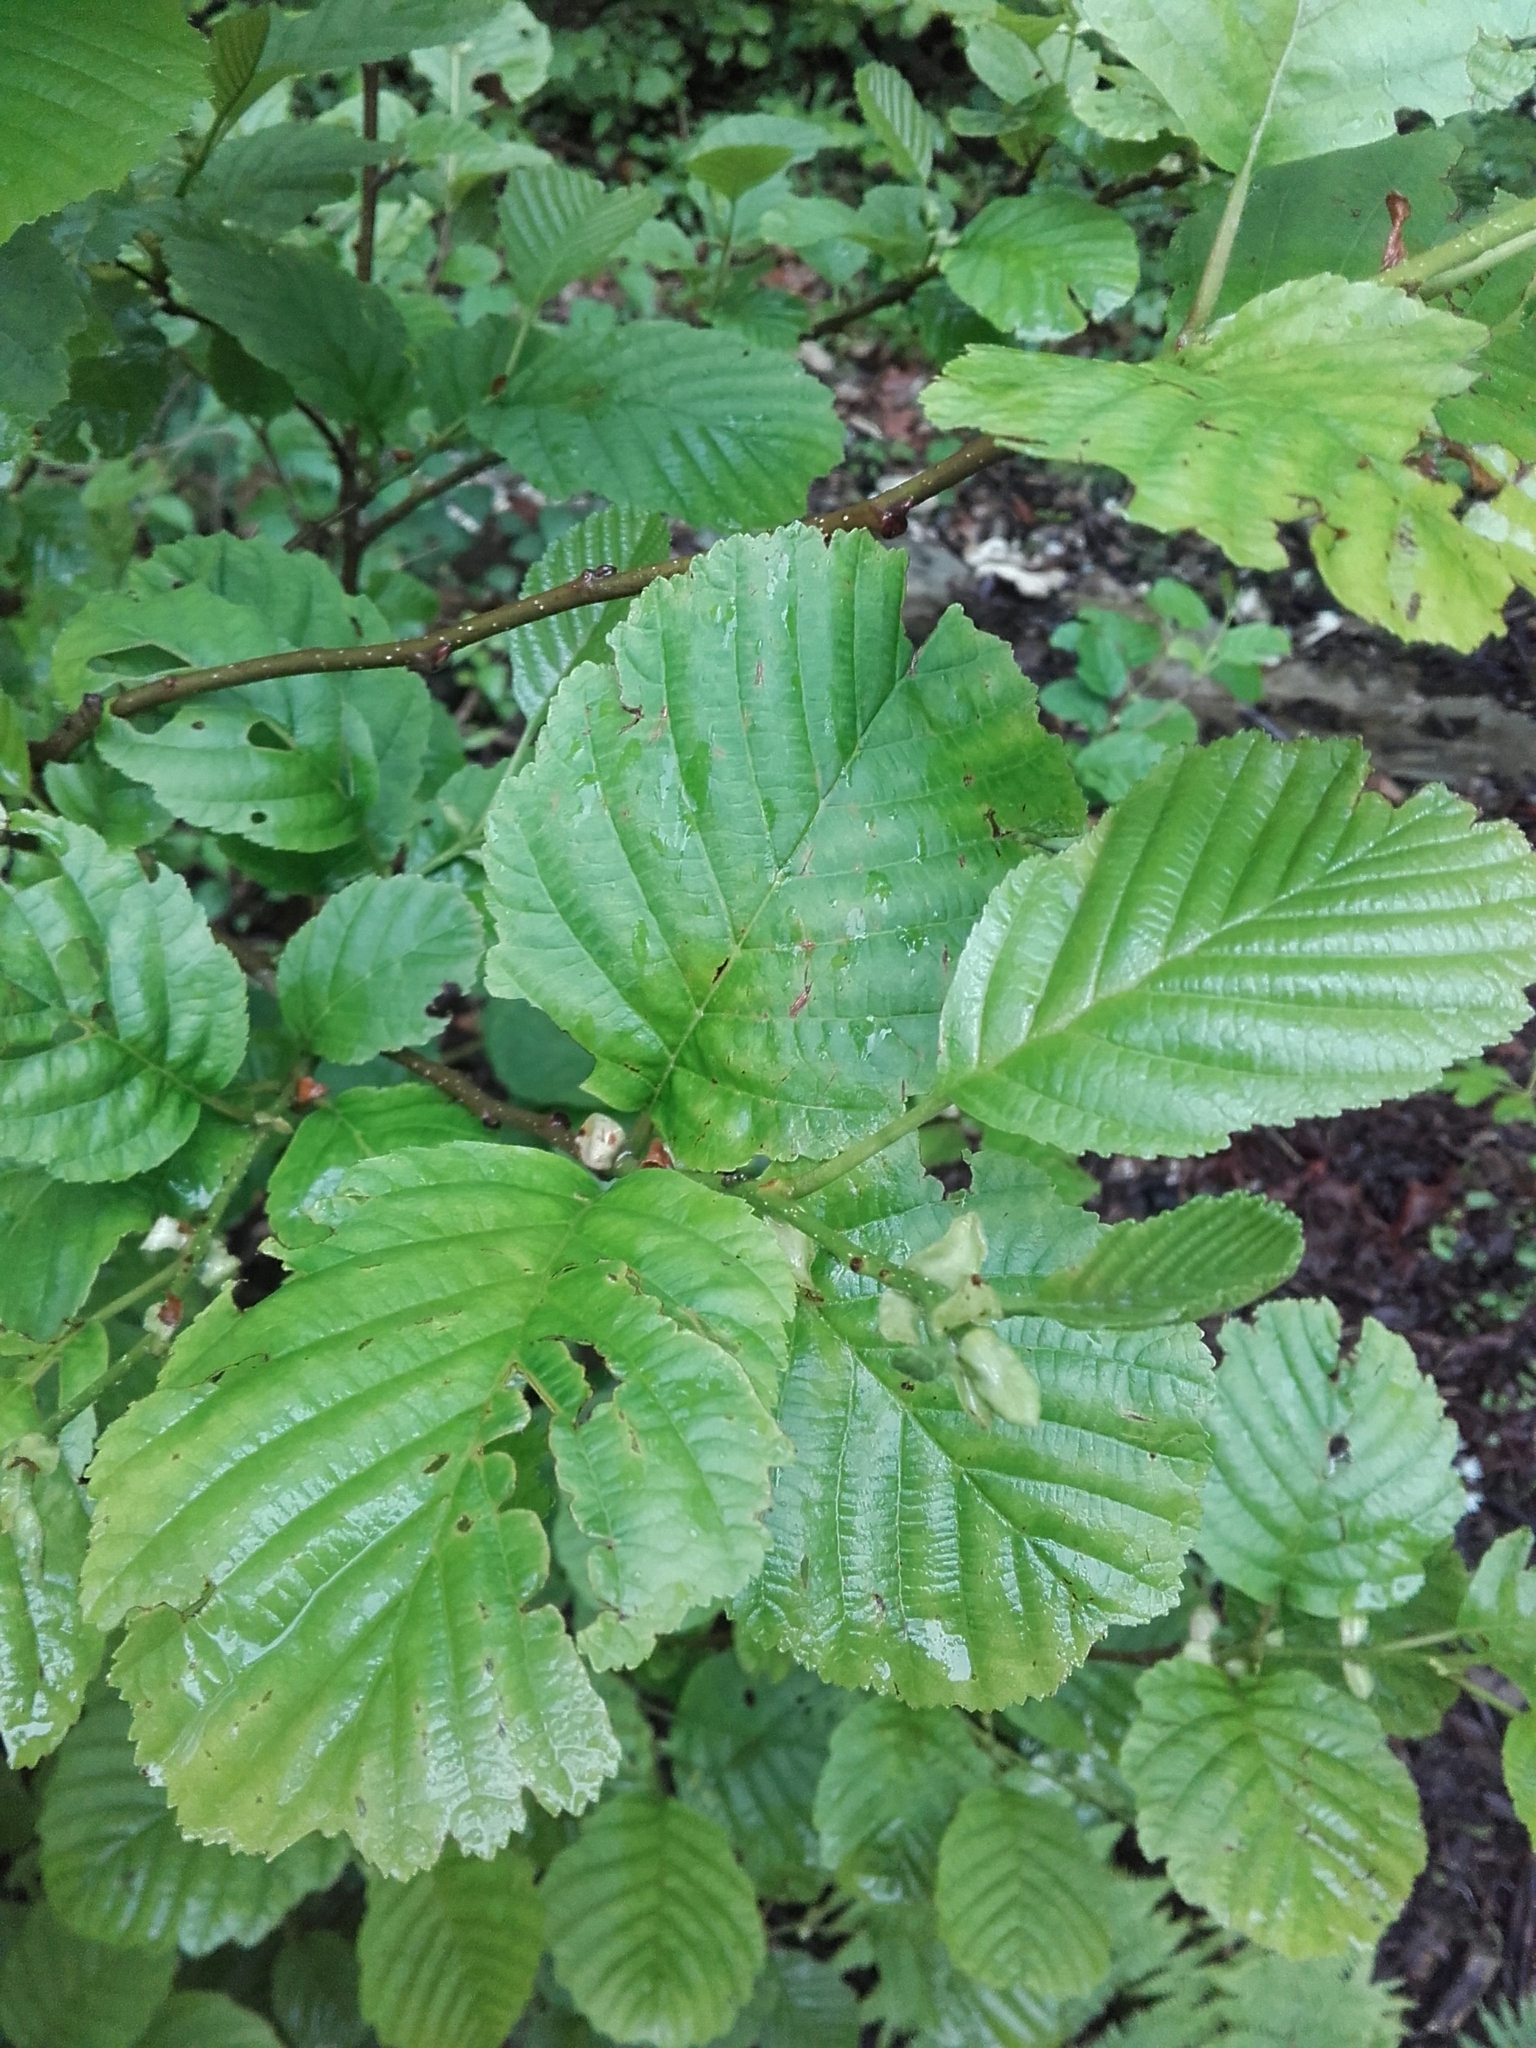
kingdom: Plantae
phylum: Tracheophyta
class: Magnoliopsida
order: Fagales
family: Betulaceae
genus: Alnus
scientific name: Alnus glutinosa
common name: Black alder
